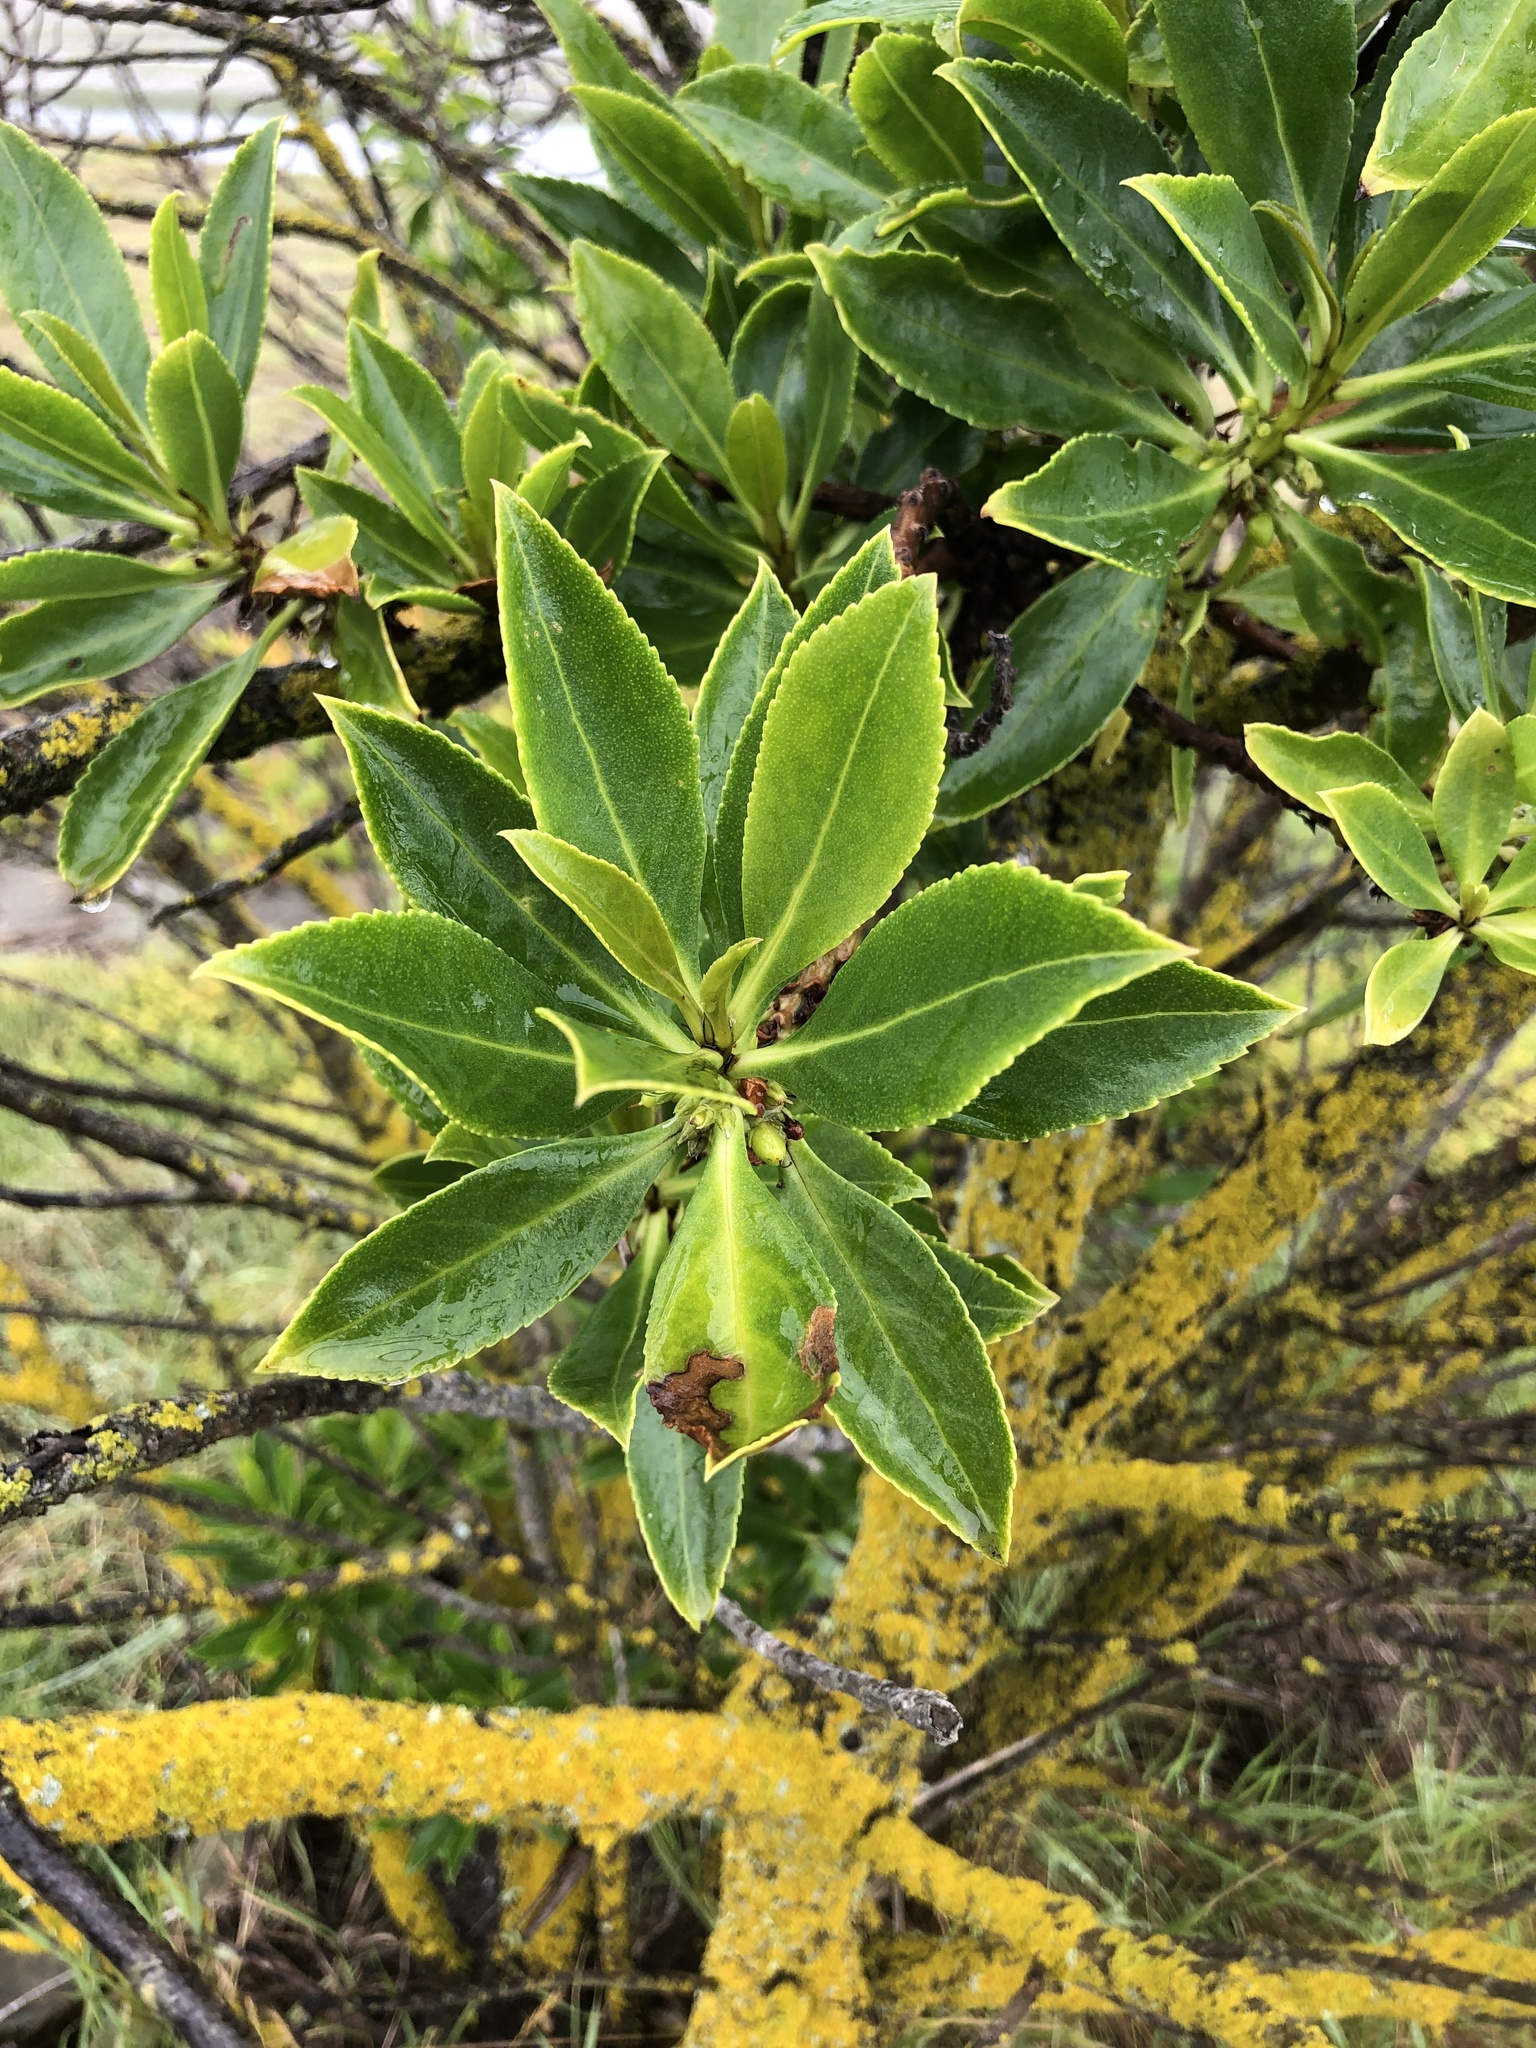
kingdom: Plantae
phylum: Tracheophyta
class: Magnoliopsida
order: Lamiales
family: Scrophulariaceae
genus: Myoporum
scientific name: Myoporum laetum
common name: Ngaio tree
